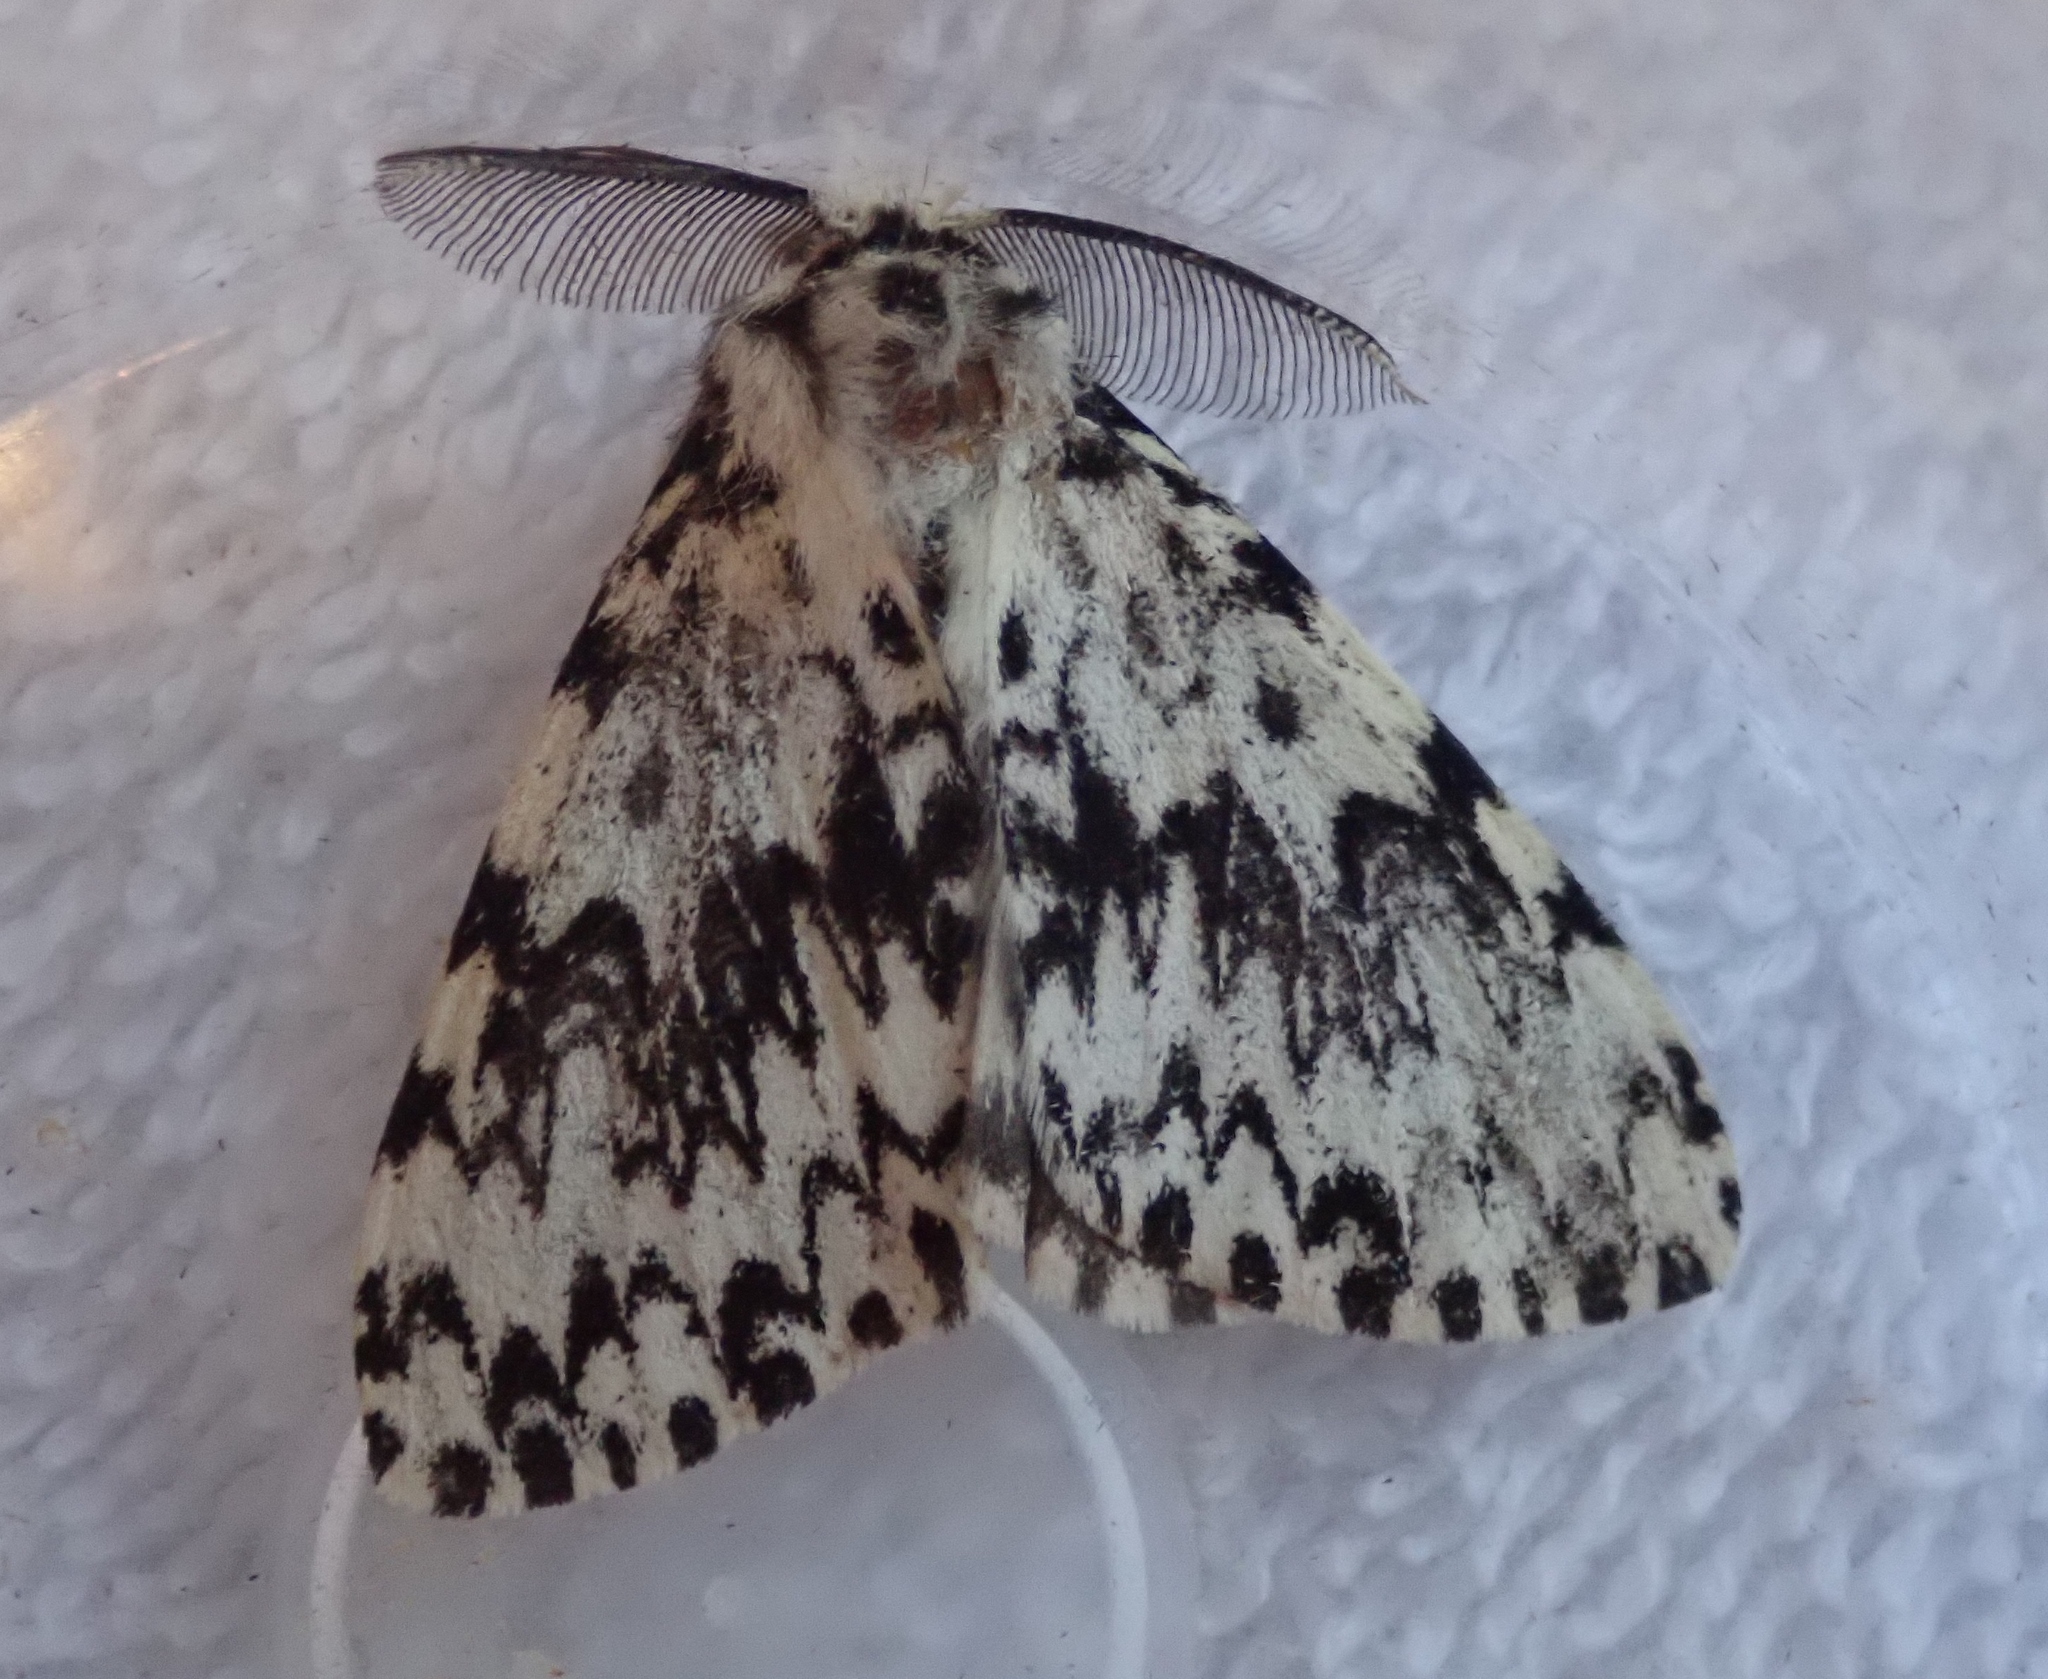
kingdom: Animalia
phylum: Arthropoda
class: Insecta
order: Lepidoptera
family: Erebidae
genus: Lymantria
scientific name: Lymantria monacha
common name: Black arches
